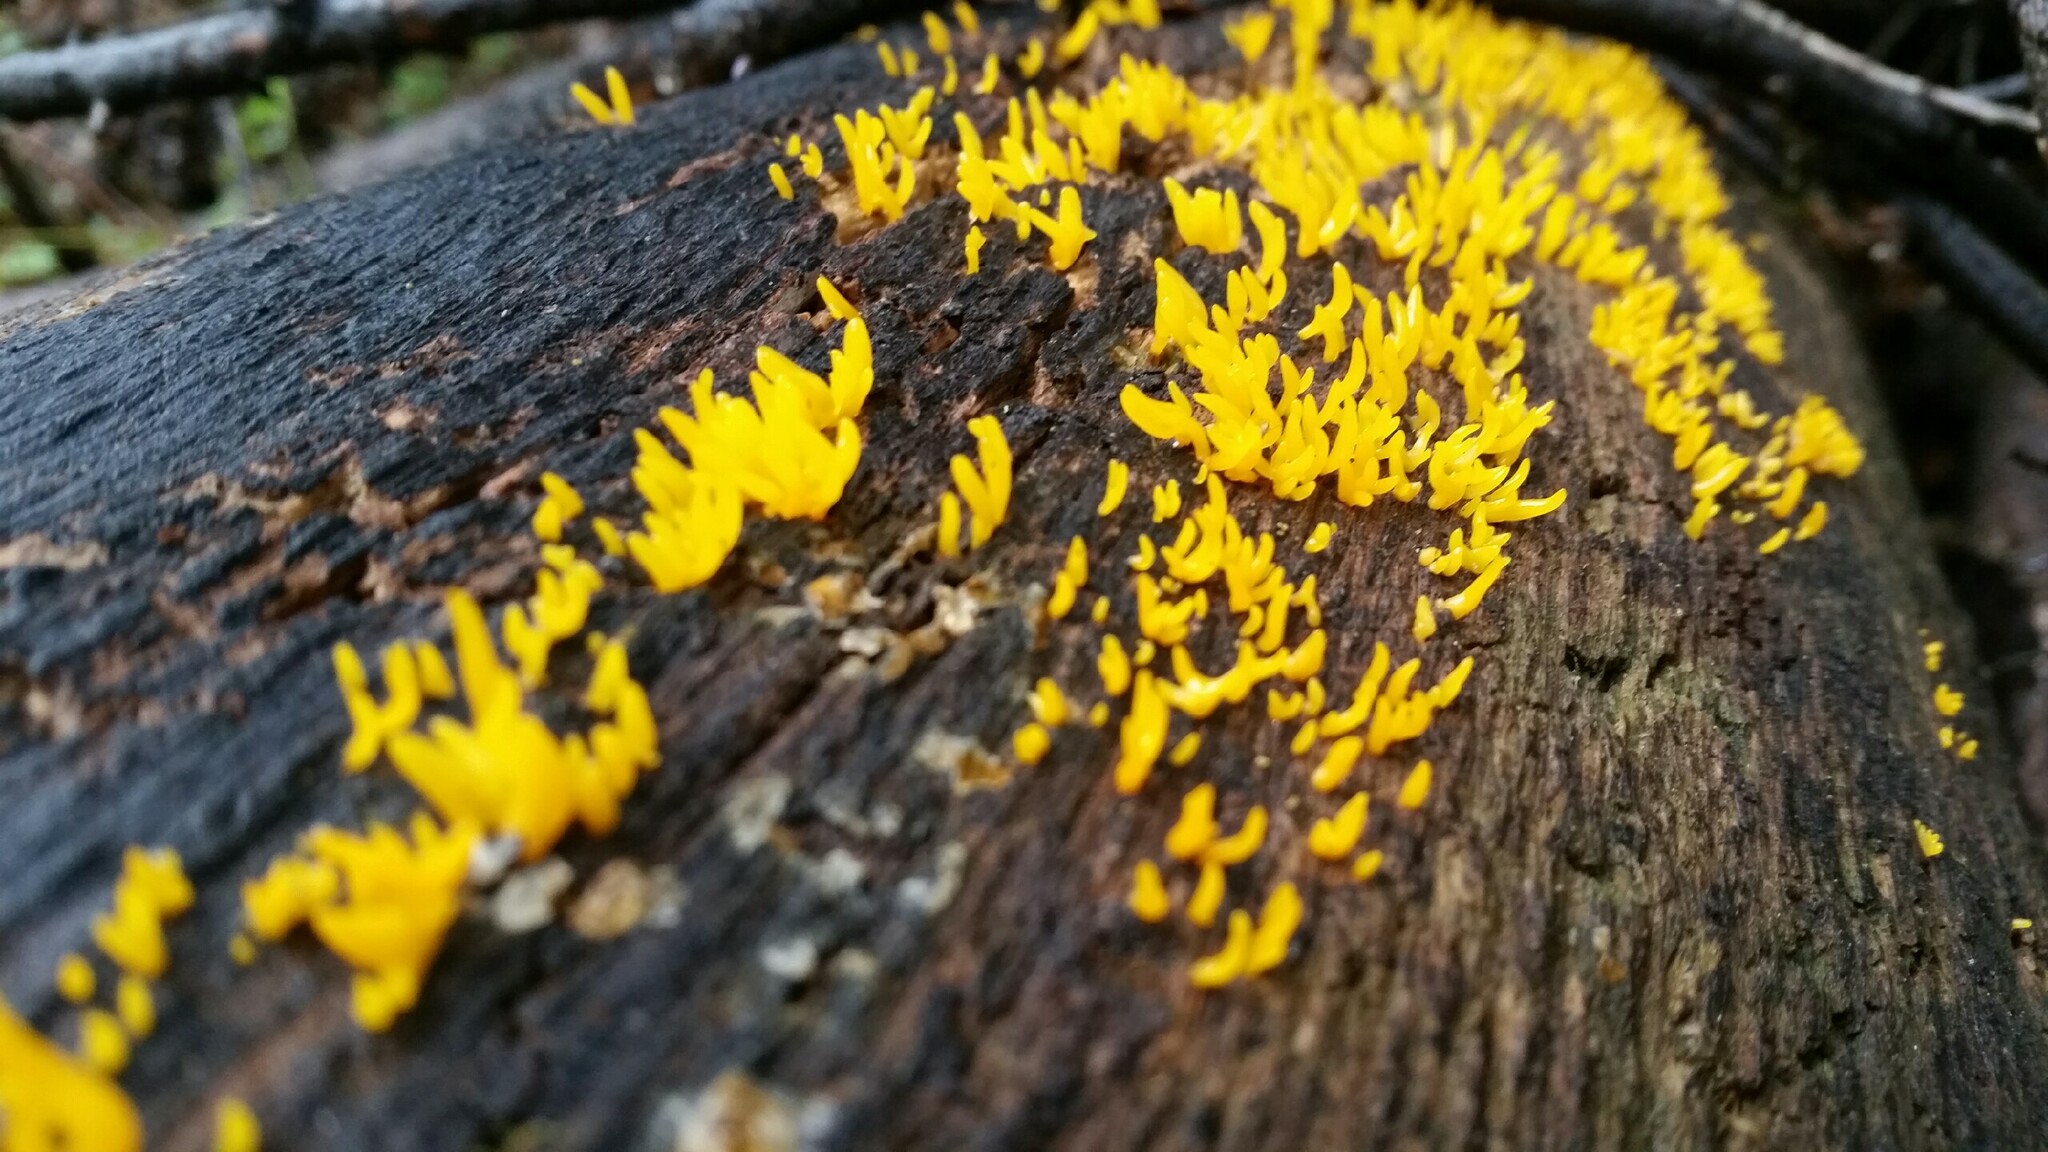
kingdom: Fungi
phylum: Basidiomycota
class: Dacrymycetes
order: Dacrymycetales
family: Dacrymycetaceae
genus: Calocera
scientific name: Calocera cornea
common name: Small stagshorn
